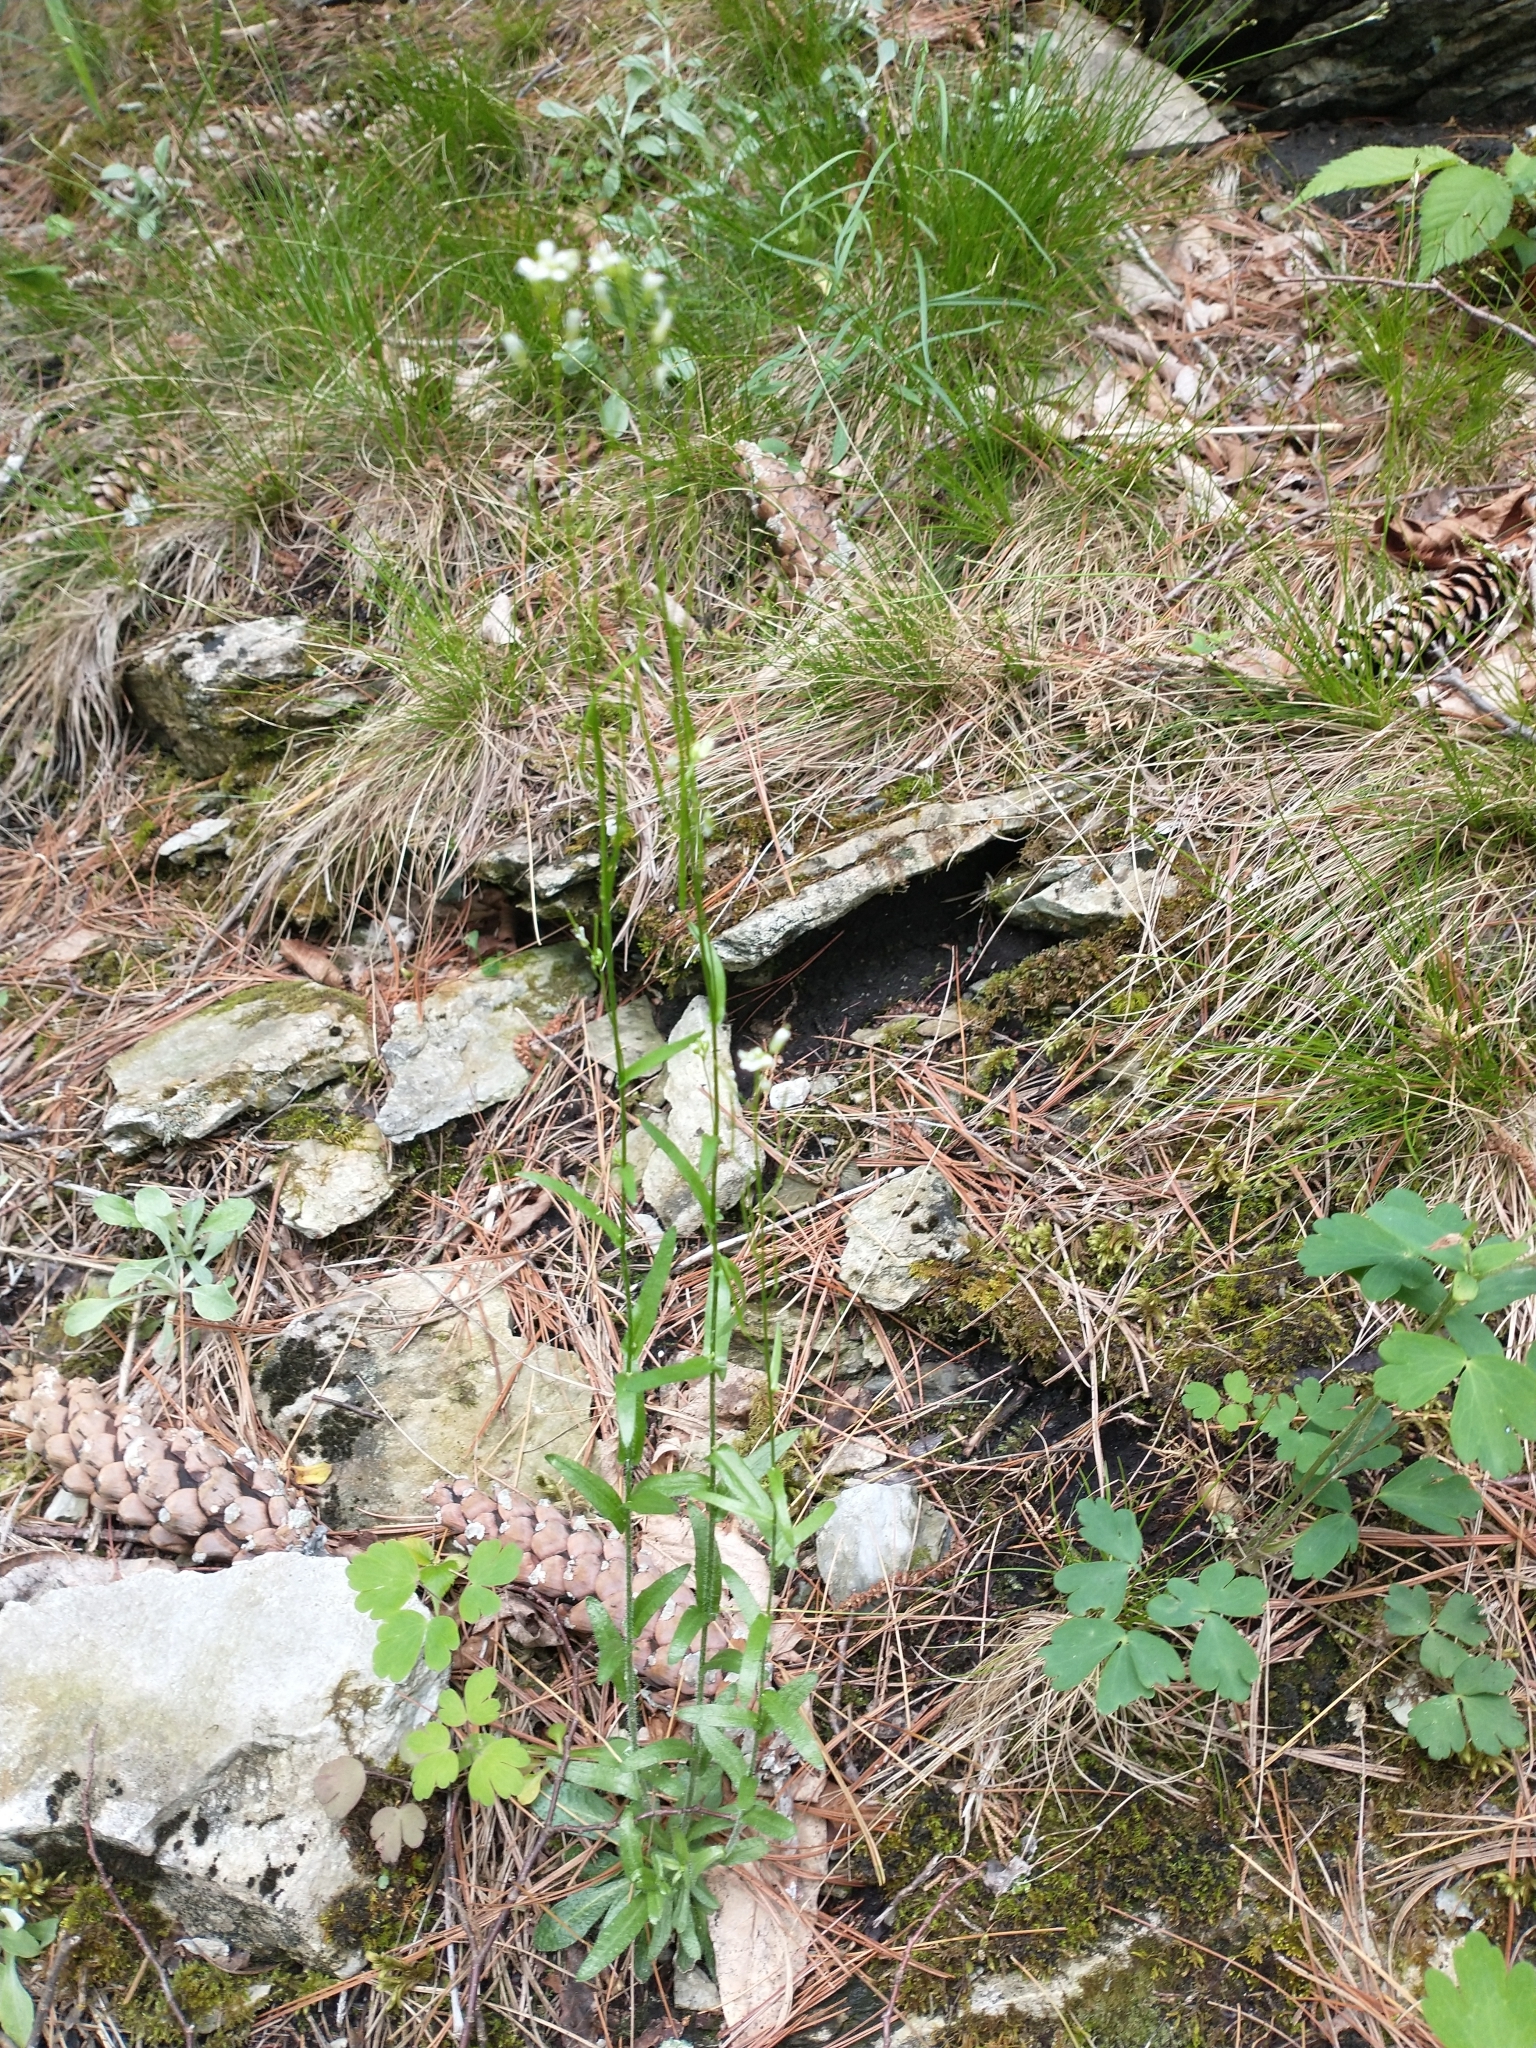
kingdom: Plantae
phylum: Tracheophyta
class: Magnoliopsida
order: Brassicales
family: Brassicaceae
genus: Arabis
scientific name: Arabis pycnocarpa
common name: Blushing rockcress
